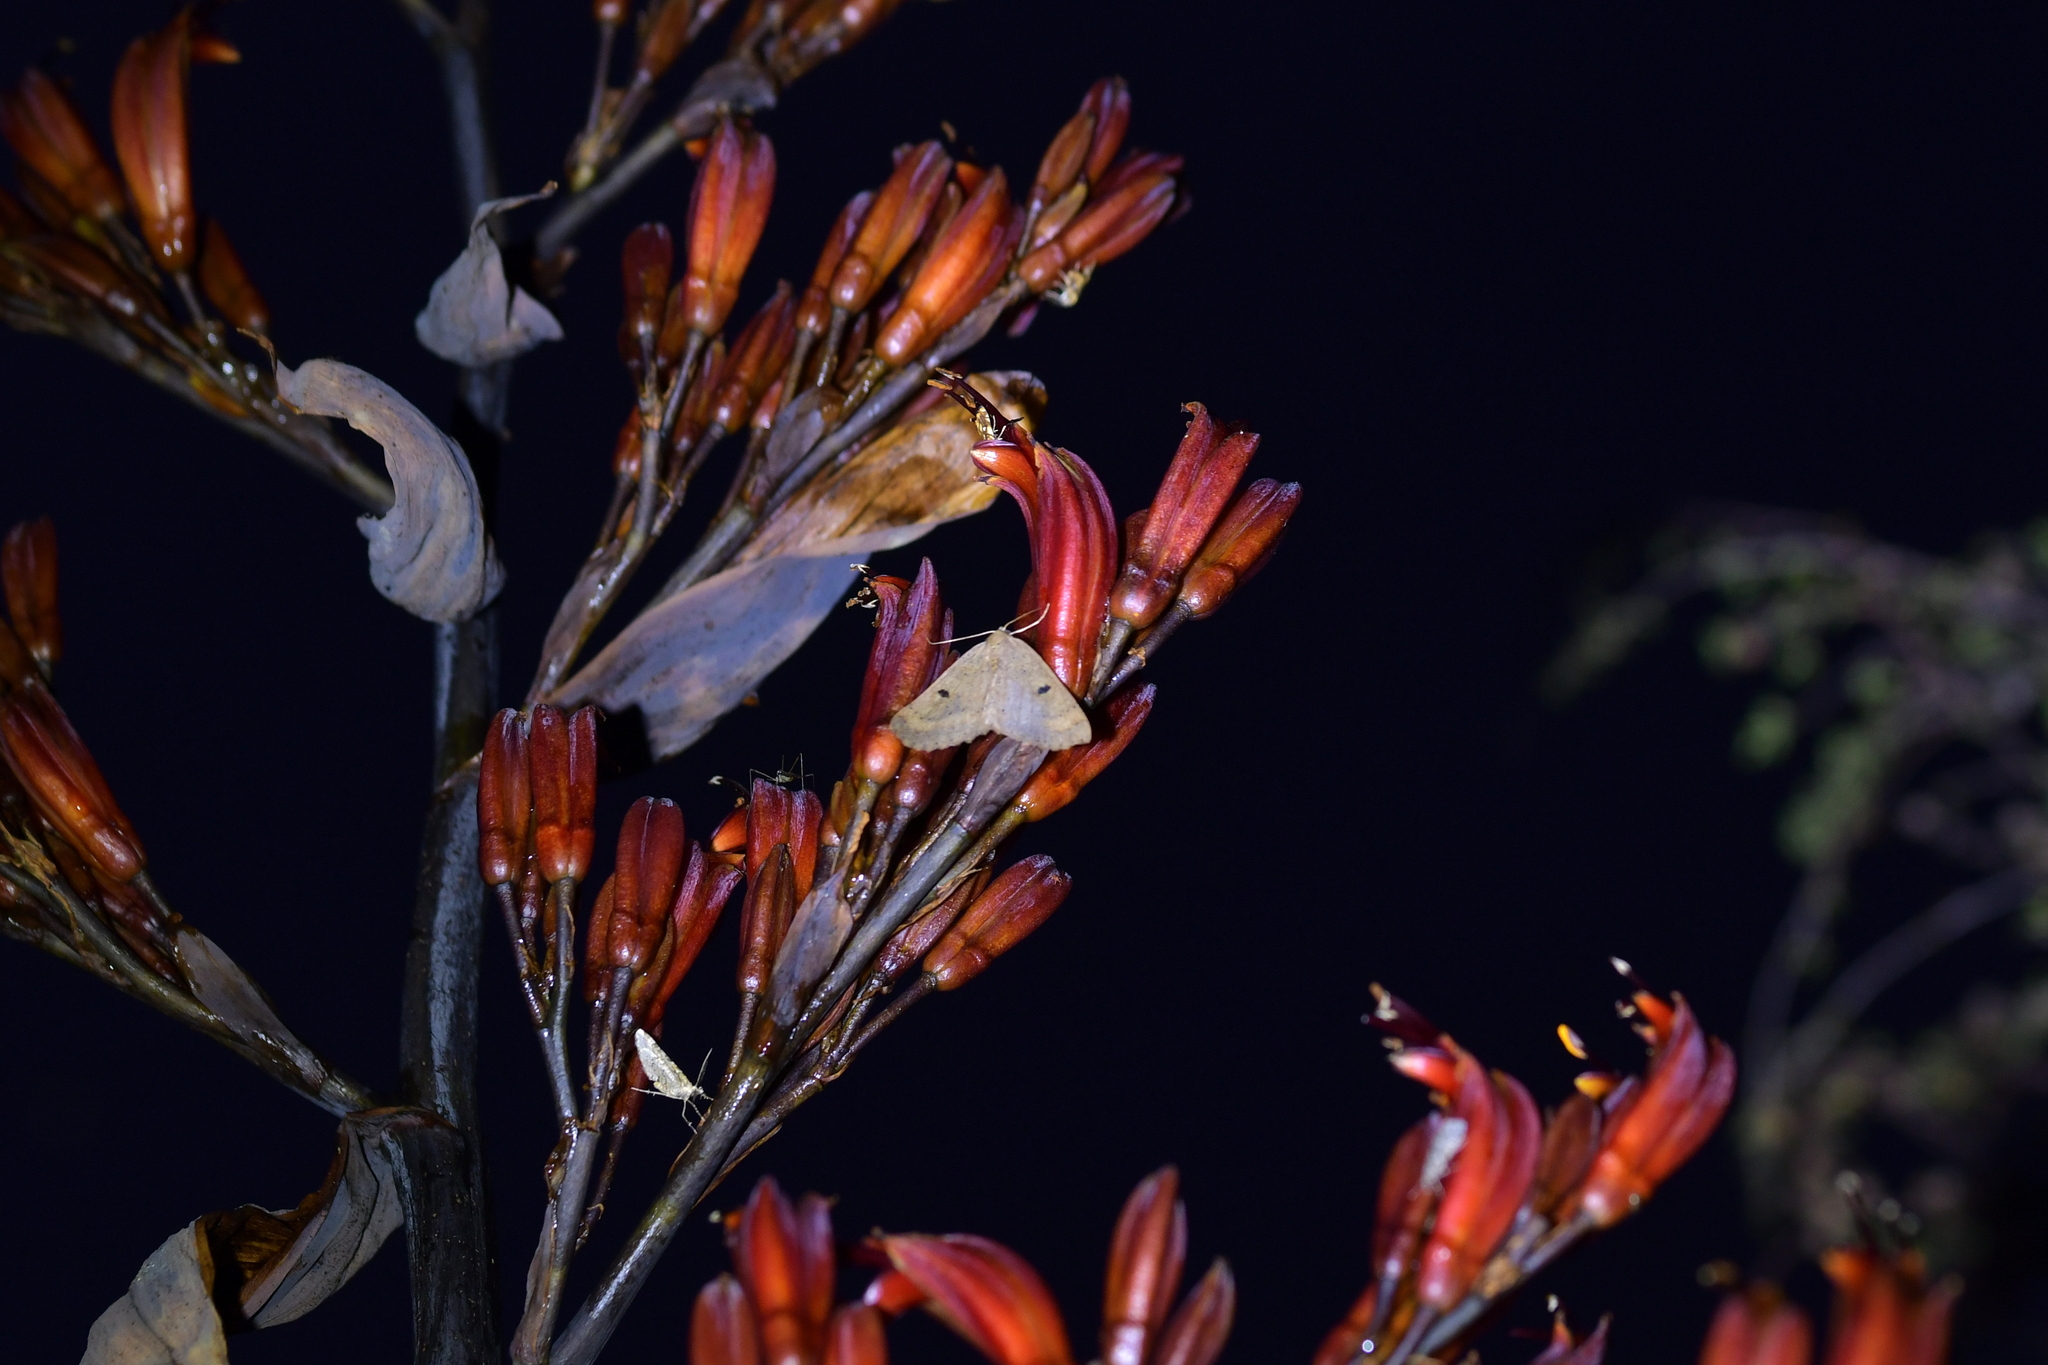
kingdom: Animalia
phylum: Arthropoda
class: Insecta
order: Lepidoptera
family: Geometridae
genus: Cleora
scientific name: Cleora scriptaria
